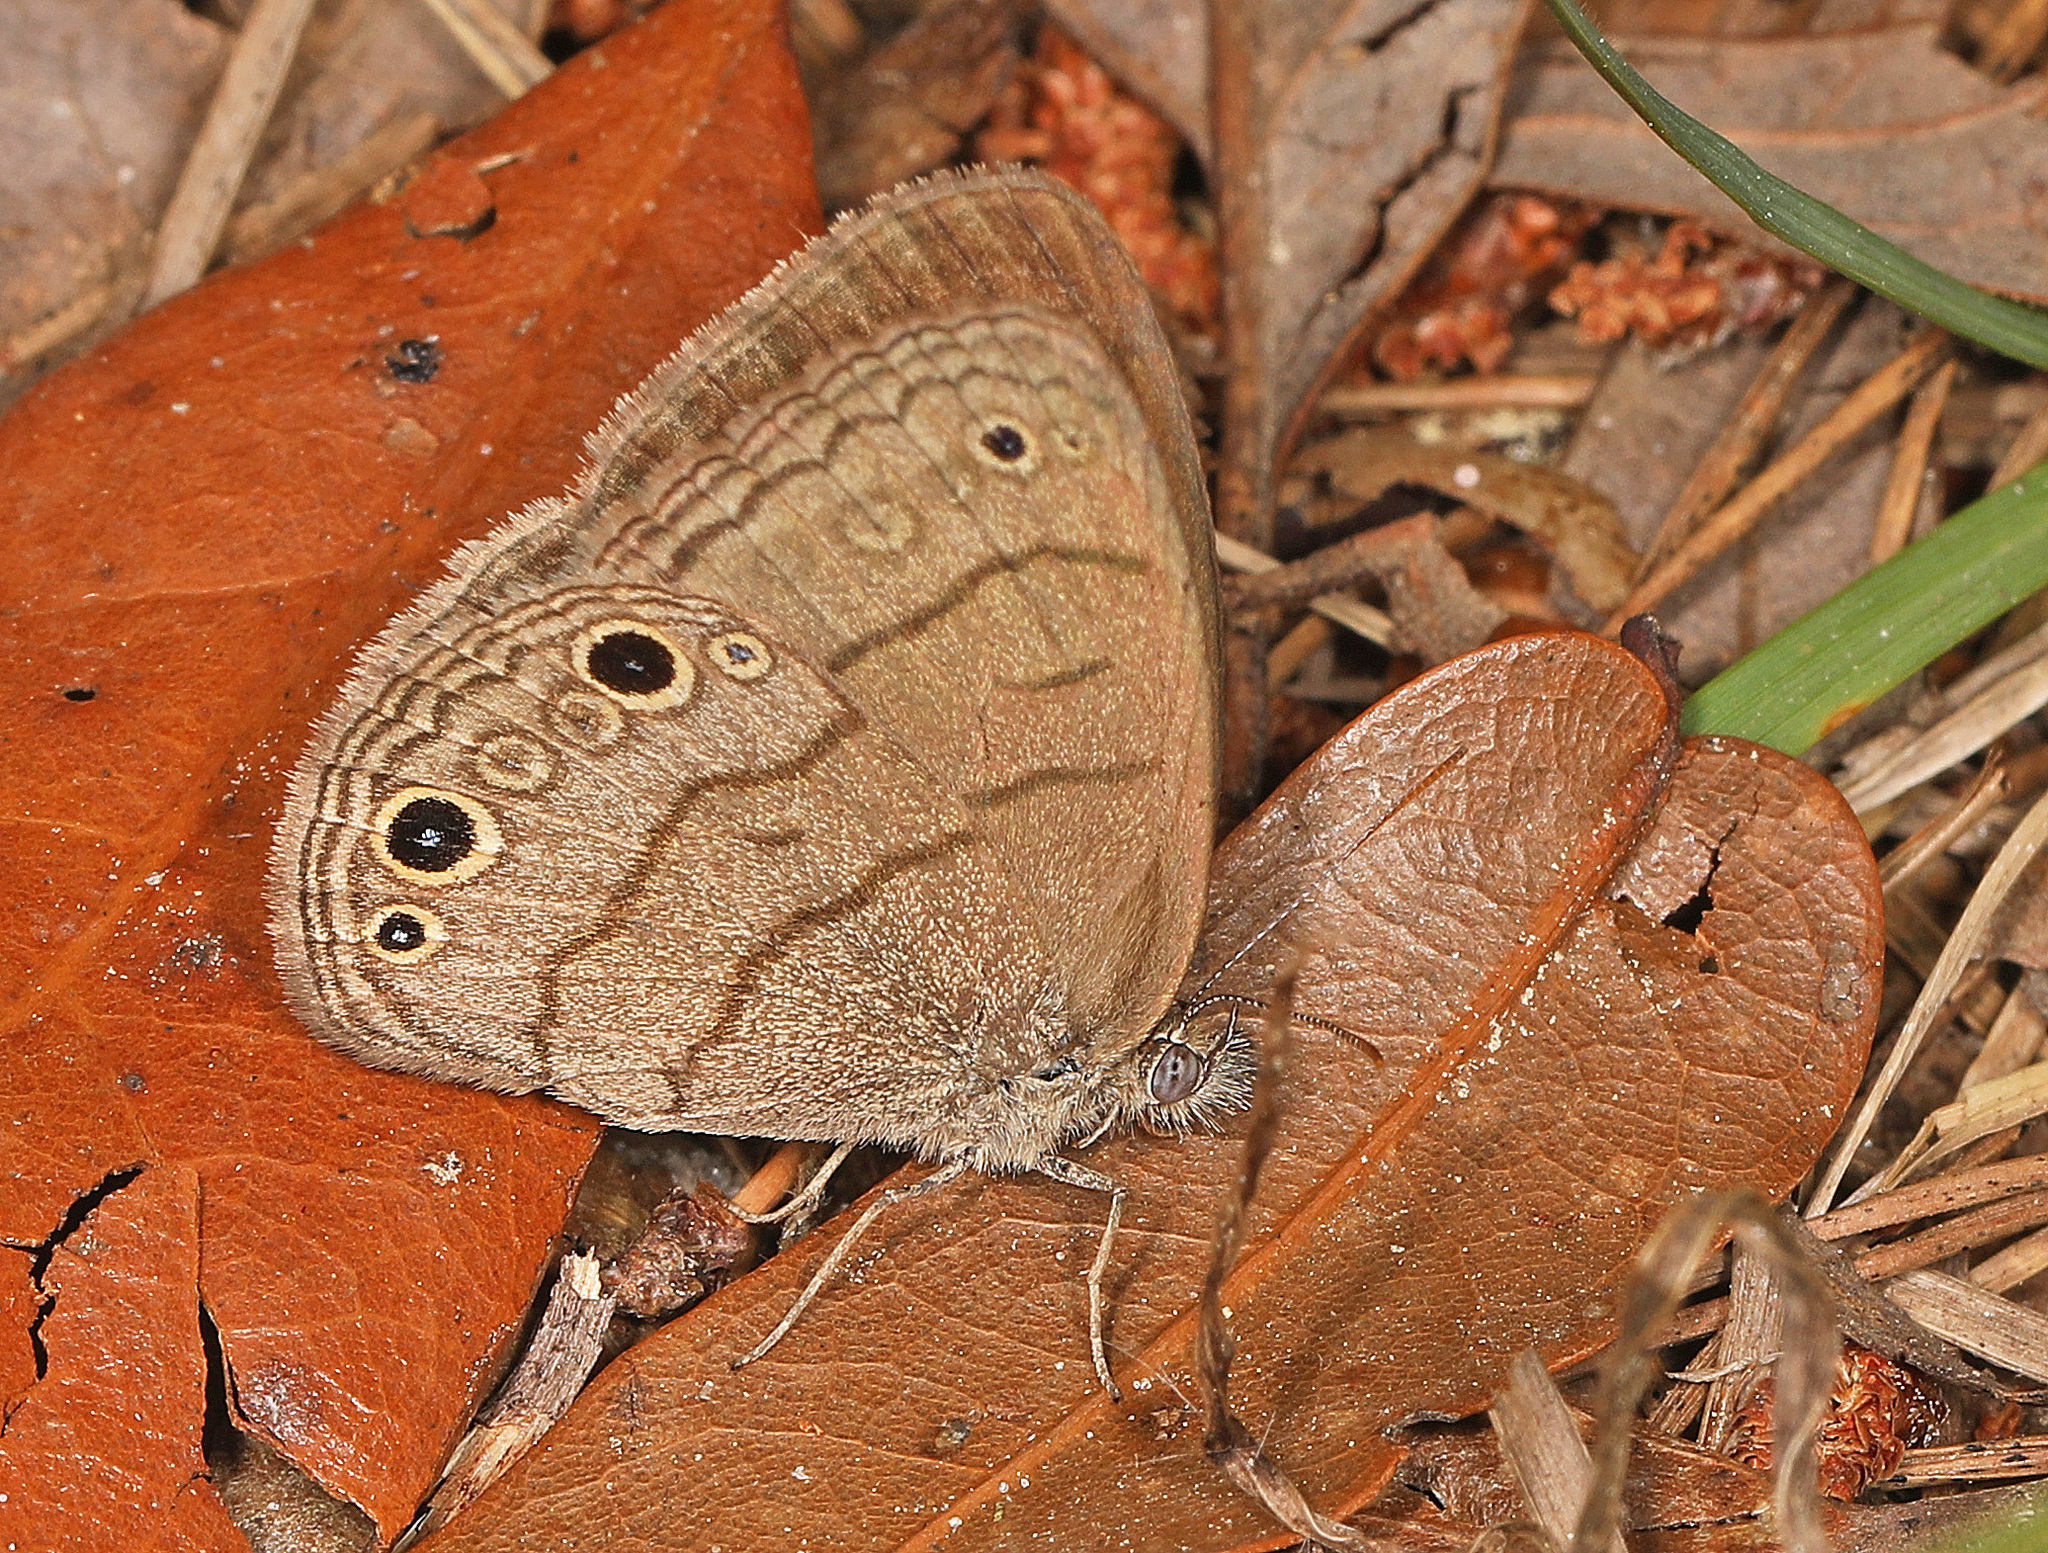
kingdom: Animalia
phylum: Arthropoda
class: Insecta
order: Lepidoptera
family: Nymphalidae
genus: Hermeuptychia
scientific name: Hermeuptychia hermes
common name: Hermes satyr
